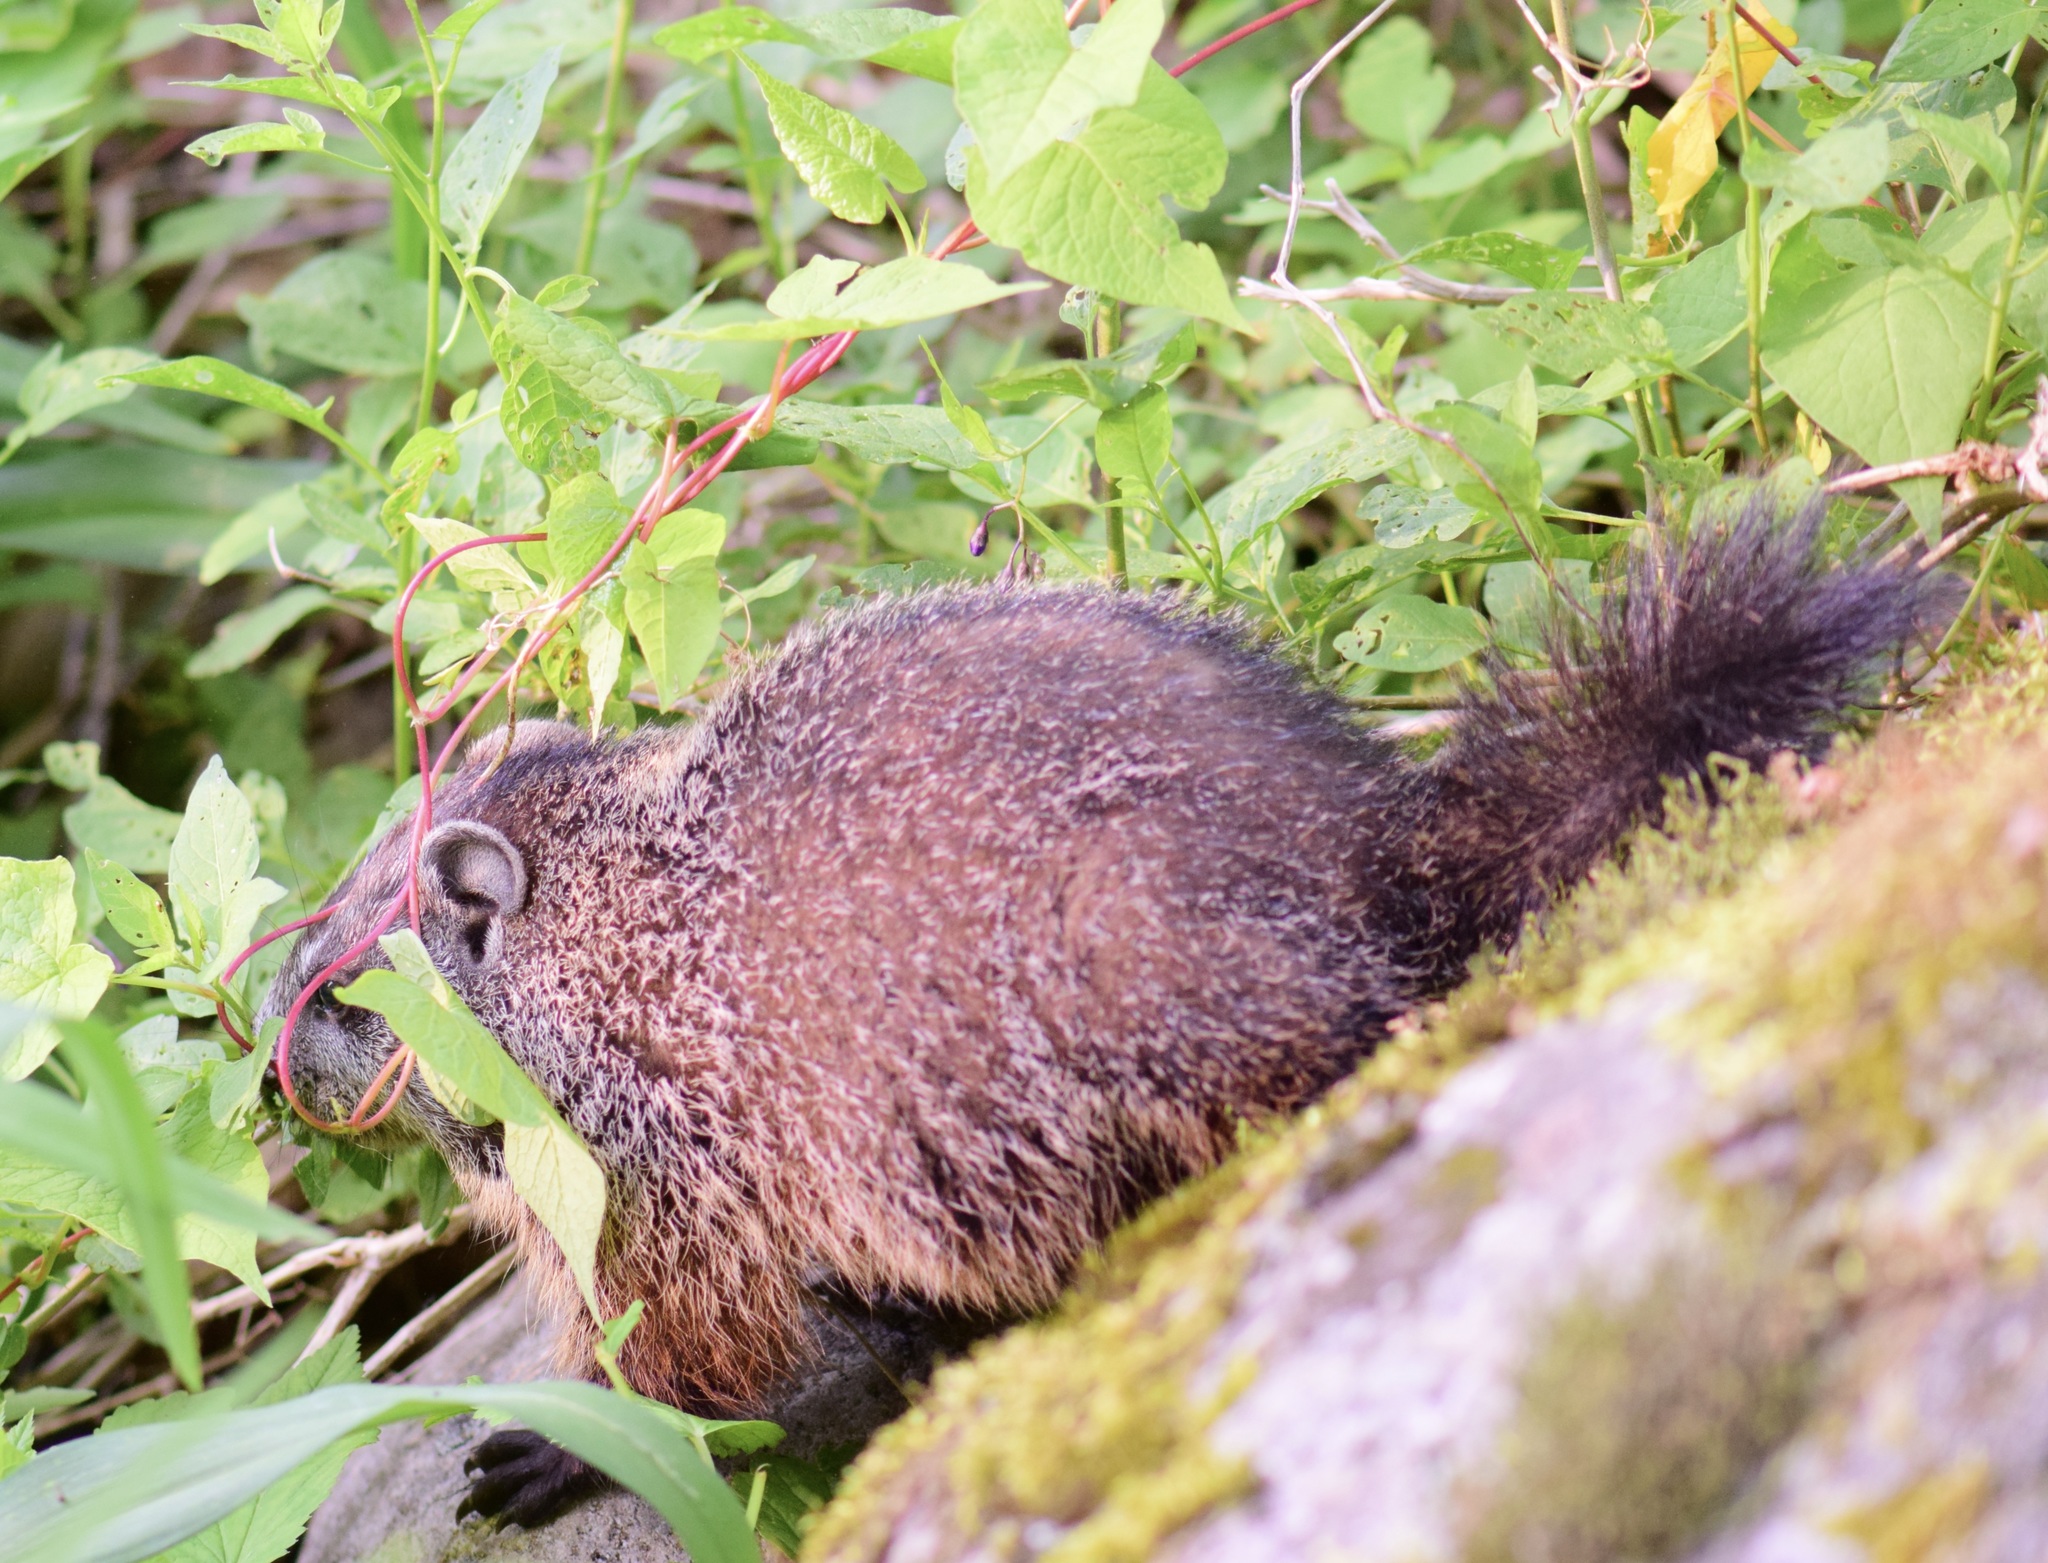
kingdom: Animalia
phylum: Chordata
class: Mammalia
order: Rodentia
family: Sciuridae
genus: Marmota
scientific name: Marmota monax
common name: Groundhog
